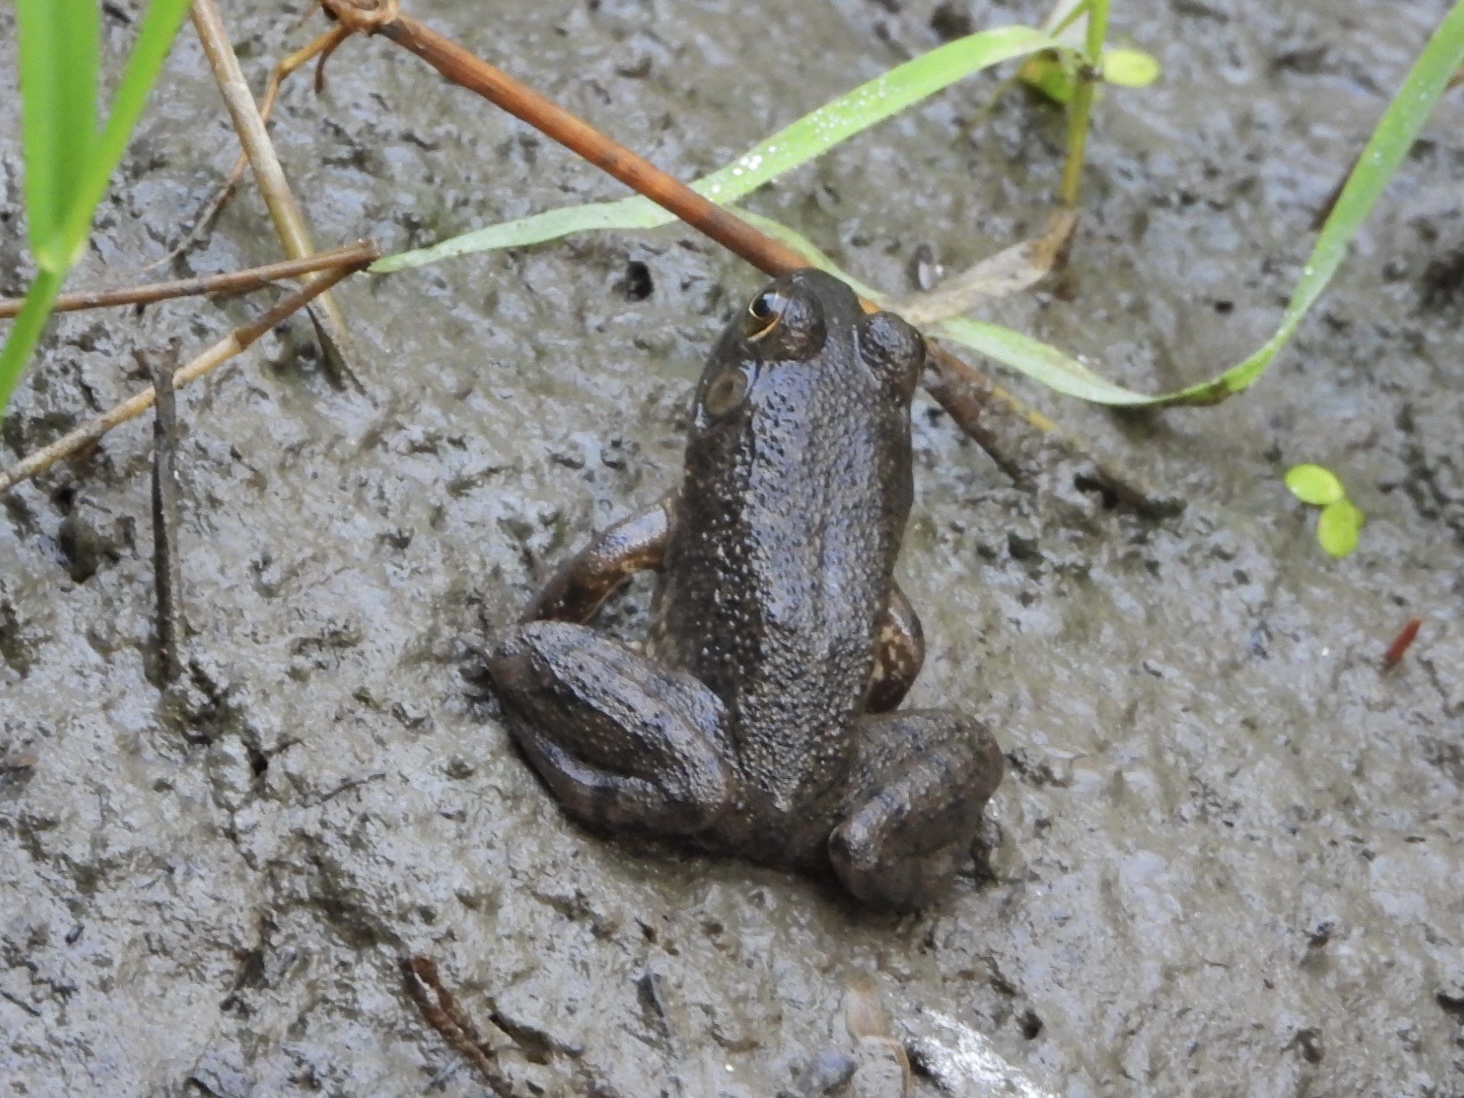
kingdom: Animalia
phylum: Chordata
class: Amphibia
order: Anura
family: Ranidae
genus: Lithobates
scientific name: Lithobates catesbeianus
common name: American bullfrog
